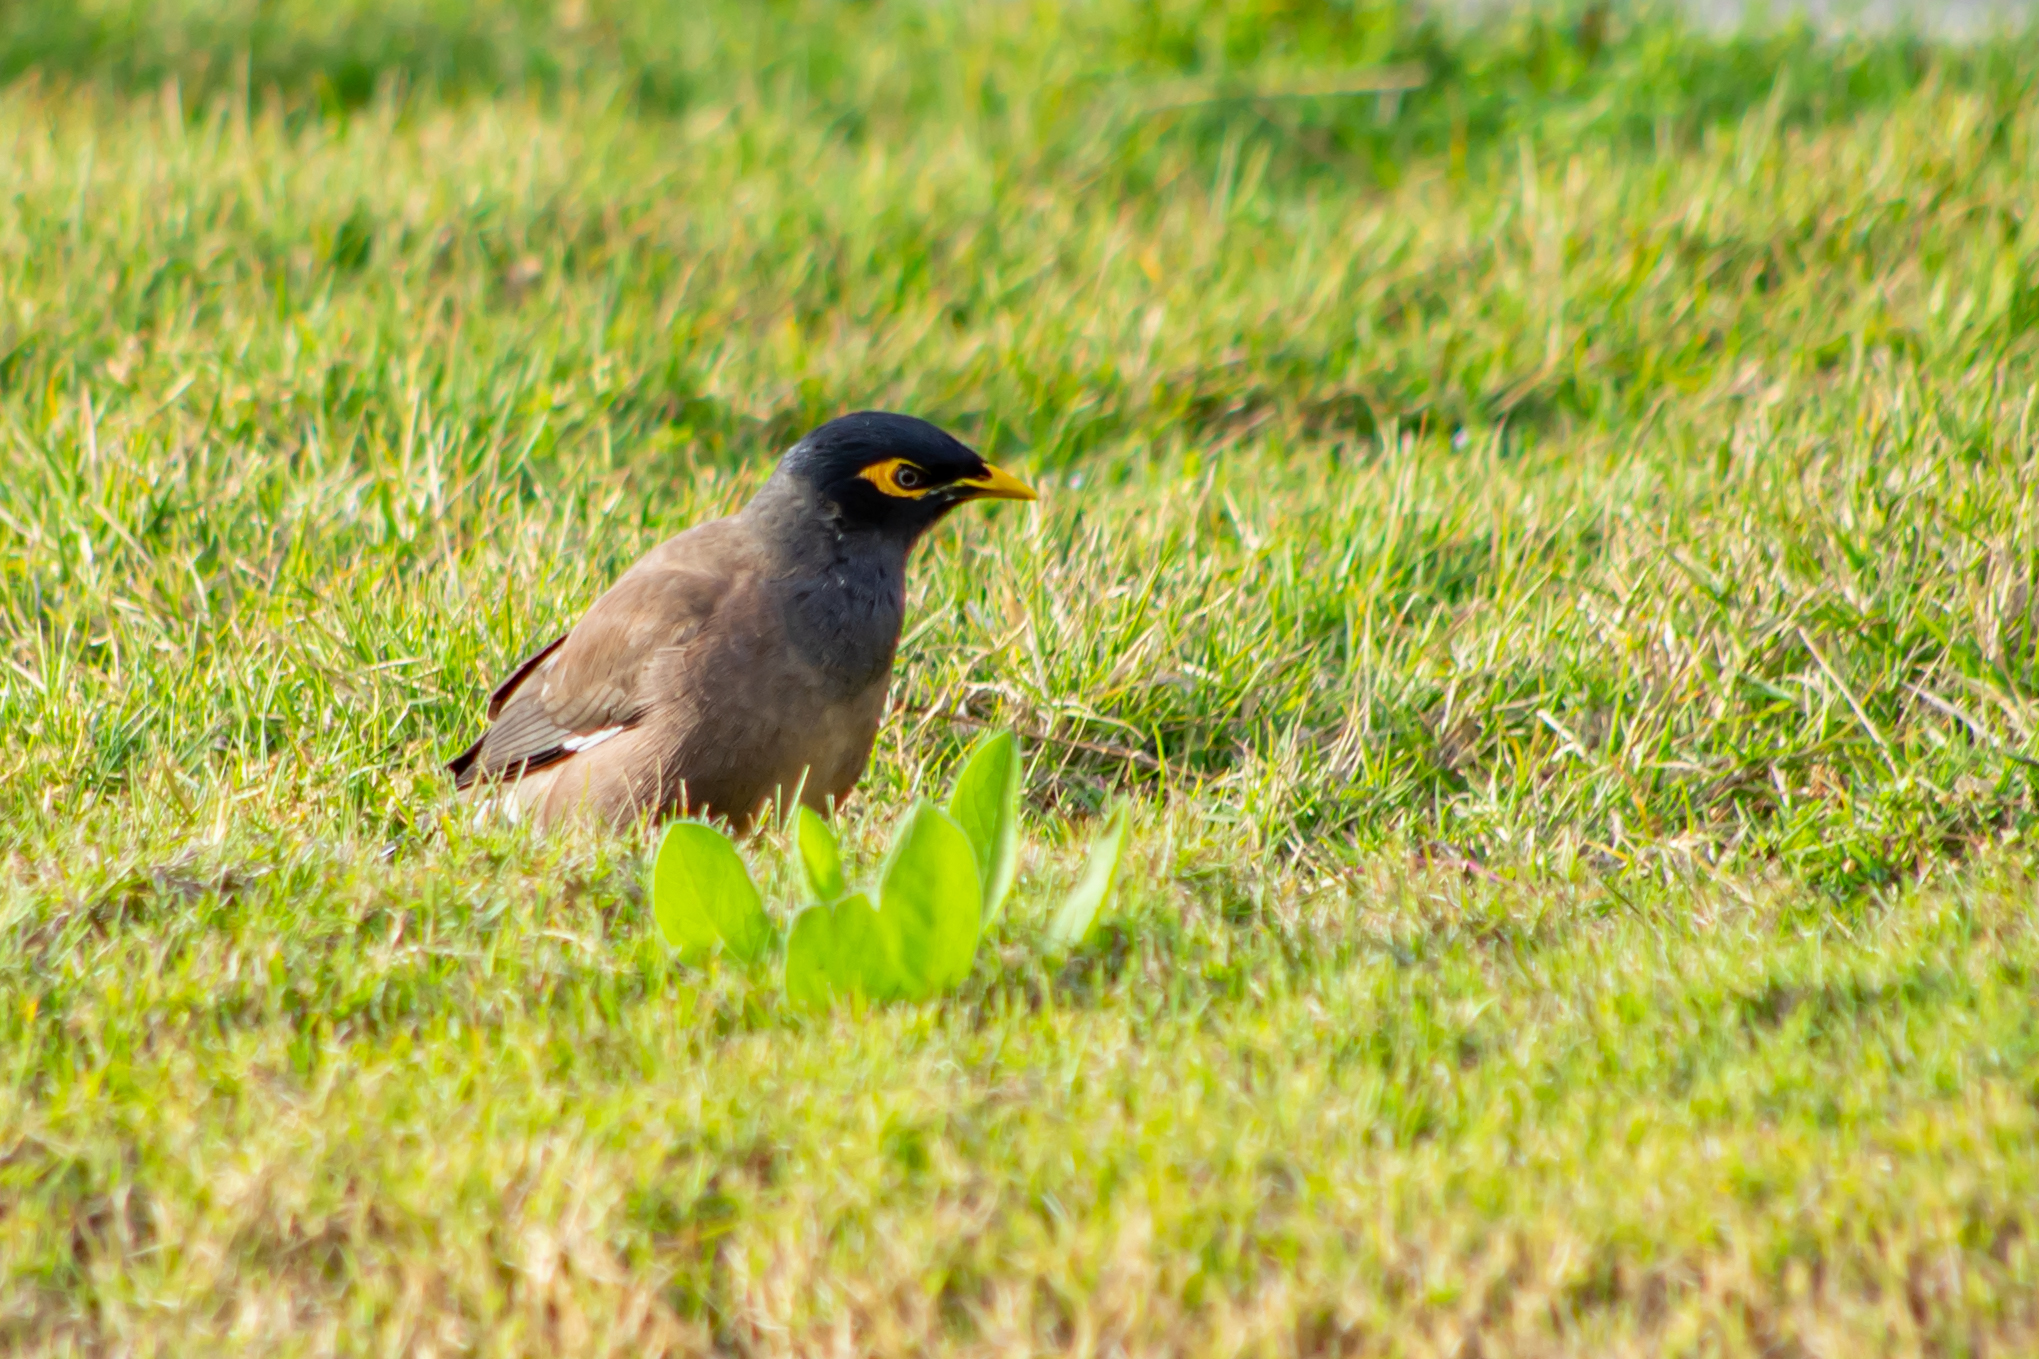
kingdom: Animalia
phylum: Chordata
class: Aves
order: Passeriformes
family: Sturnidae
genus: Acridotheres
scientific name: Acridotheres tristis
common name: Common myna
